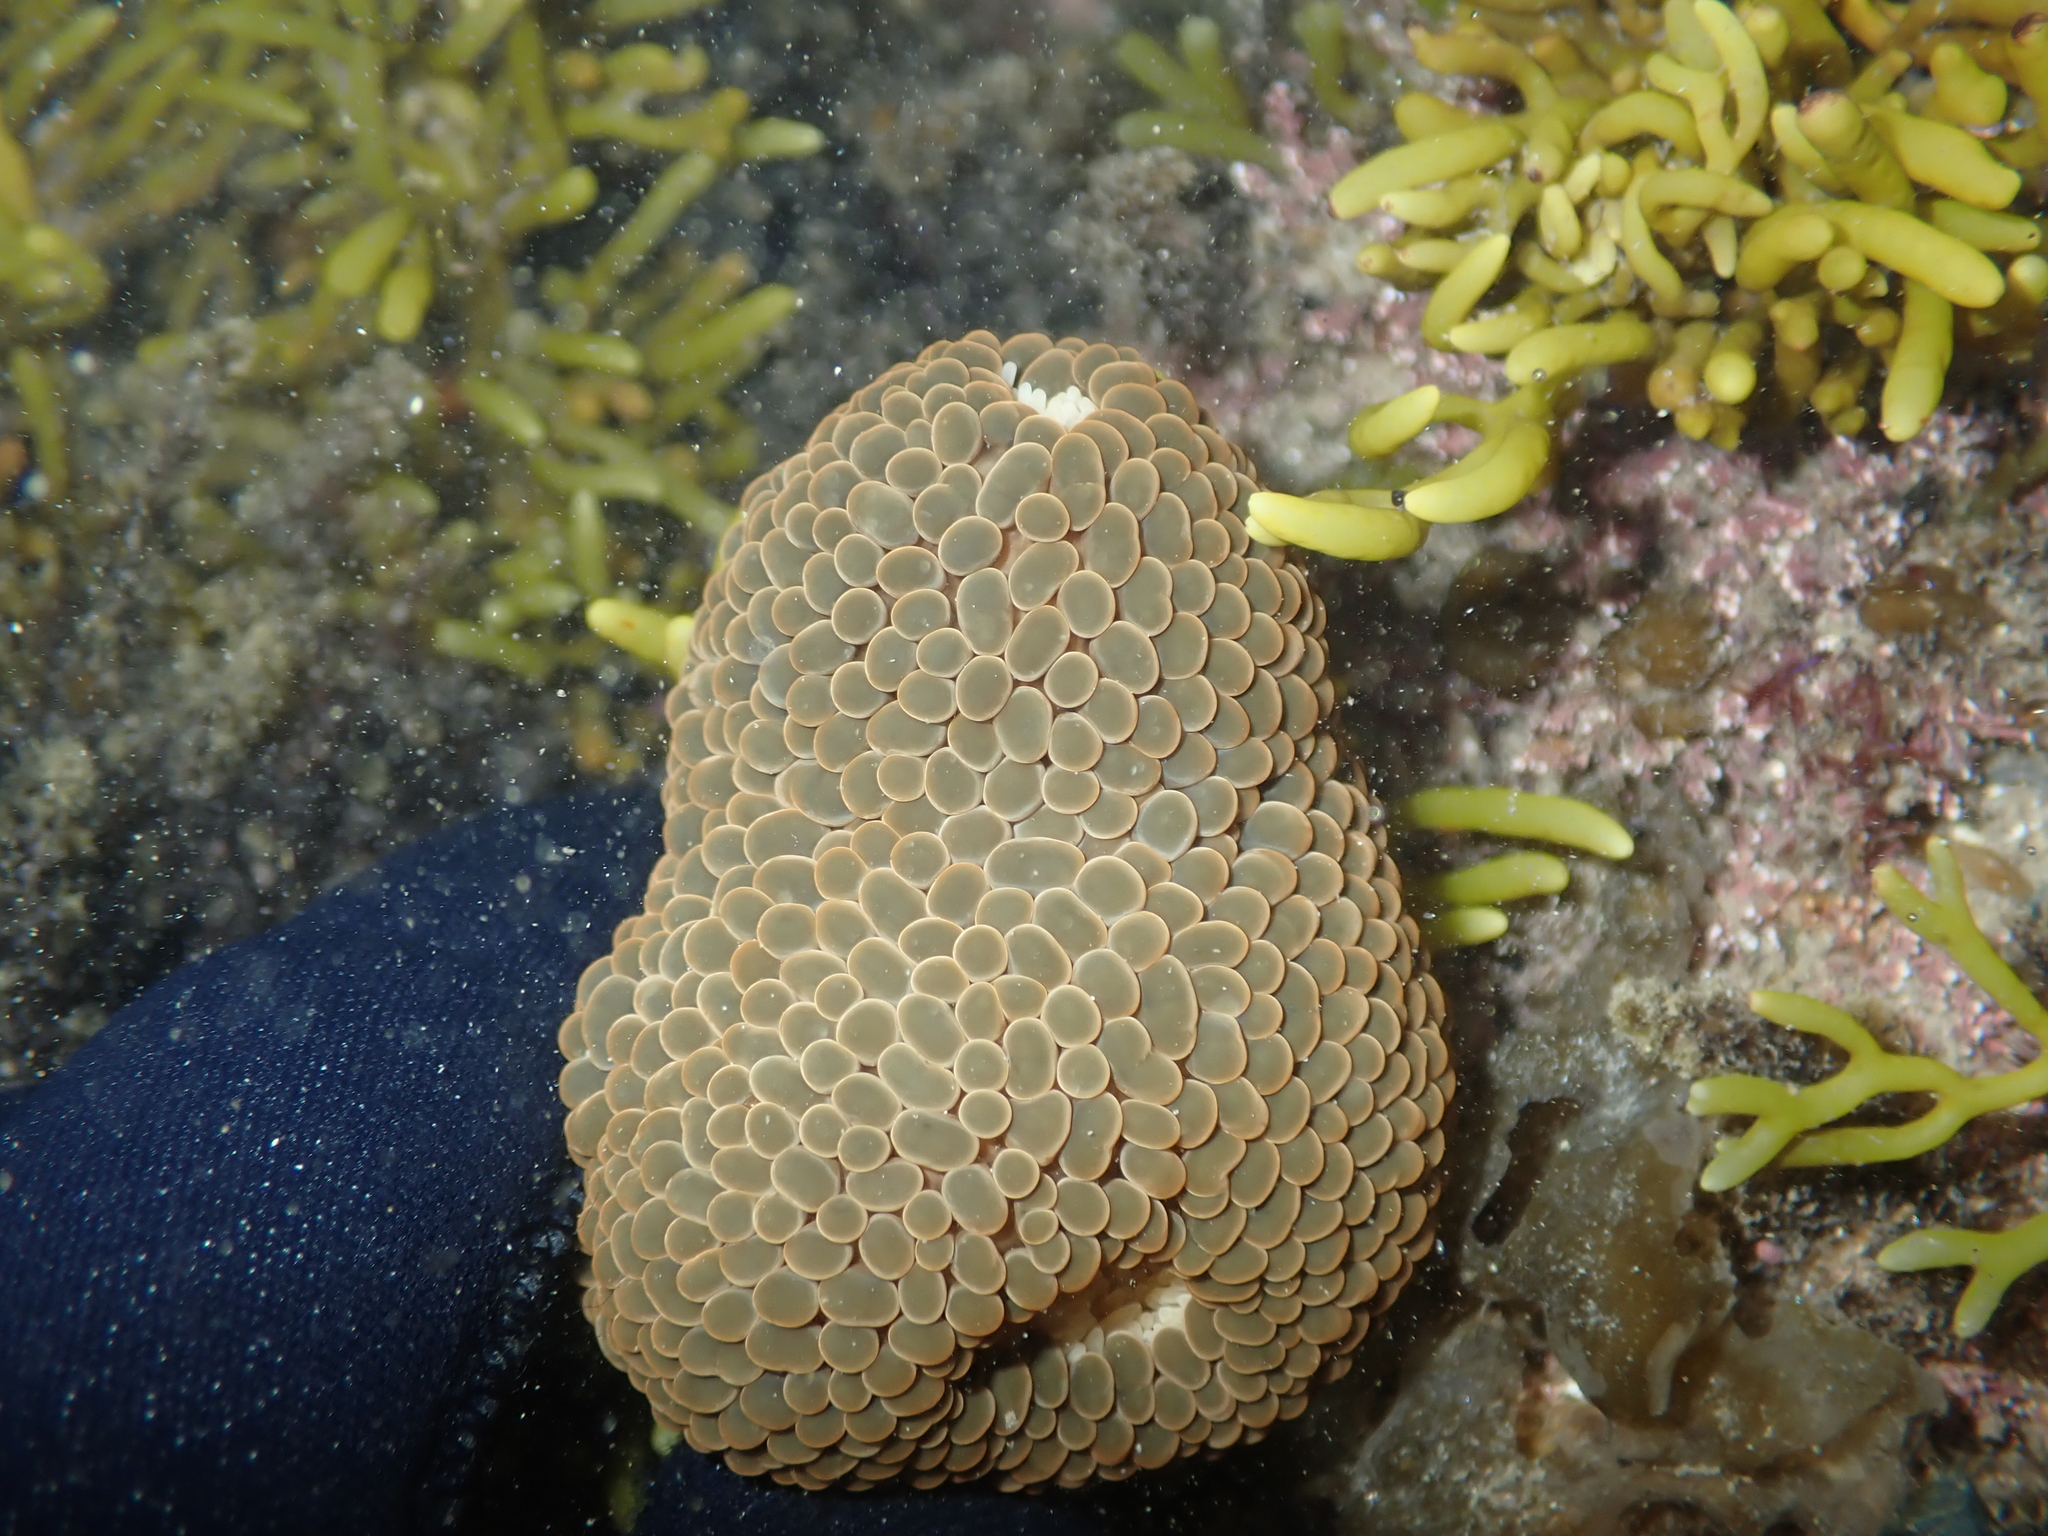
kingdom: Animalia
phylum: Cnidaria
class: Anthozoa
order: Actiniaria
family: Actiniidae
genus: Phlyctenactis
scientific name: Phlyctenactis tuberculosa
